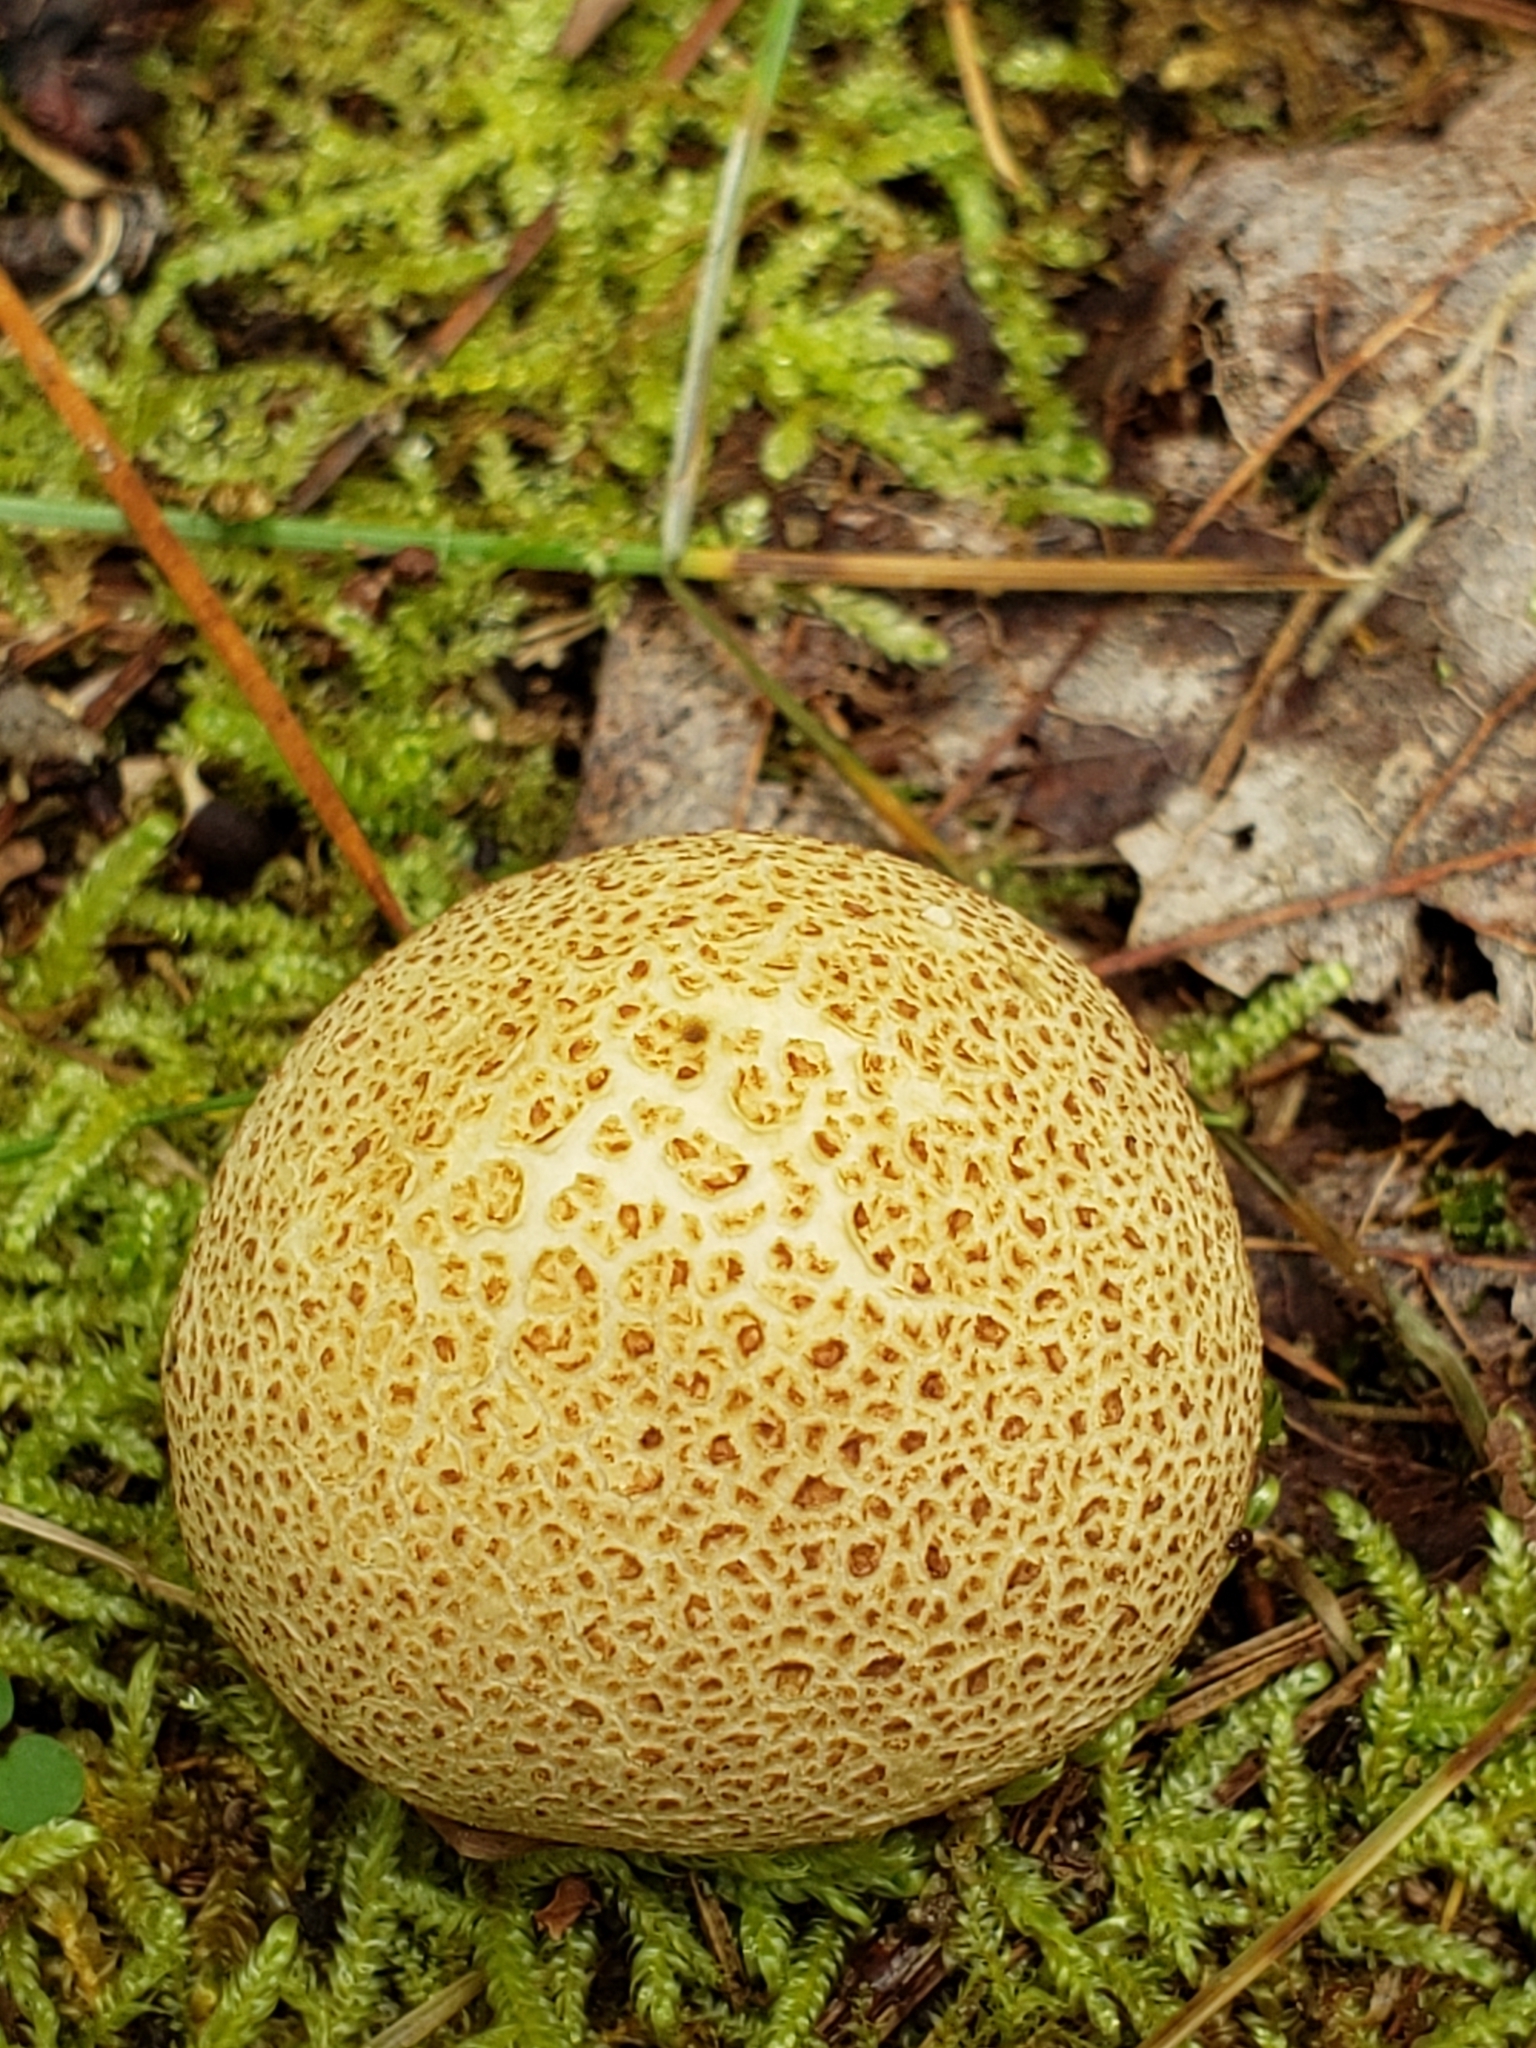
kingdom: Fungi
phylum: Basidiomycota
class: Agaricomycetes
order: Boletales
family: Sclerodermataceae
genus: Scleroderma
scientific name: Scleroderma citrinum
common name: Common earthball
